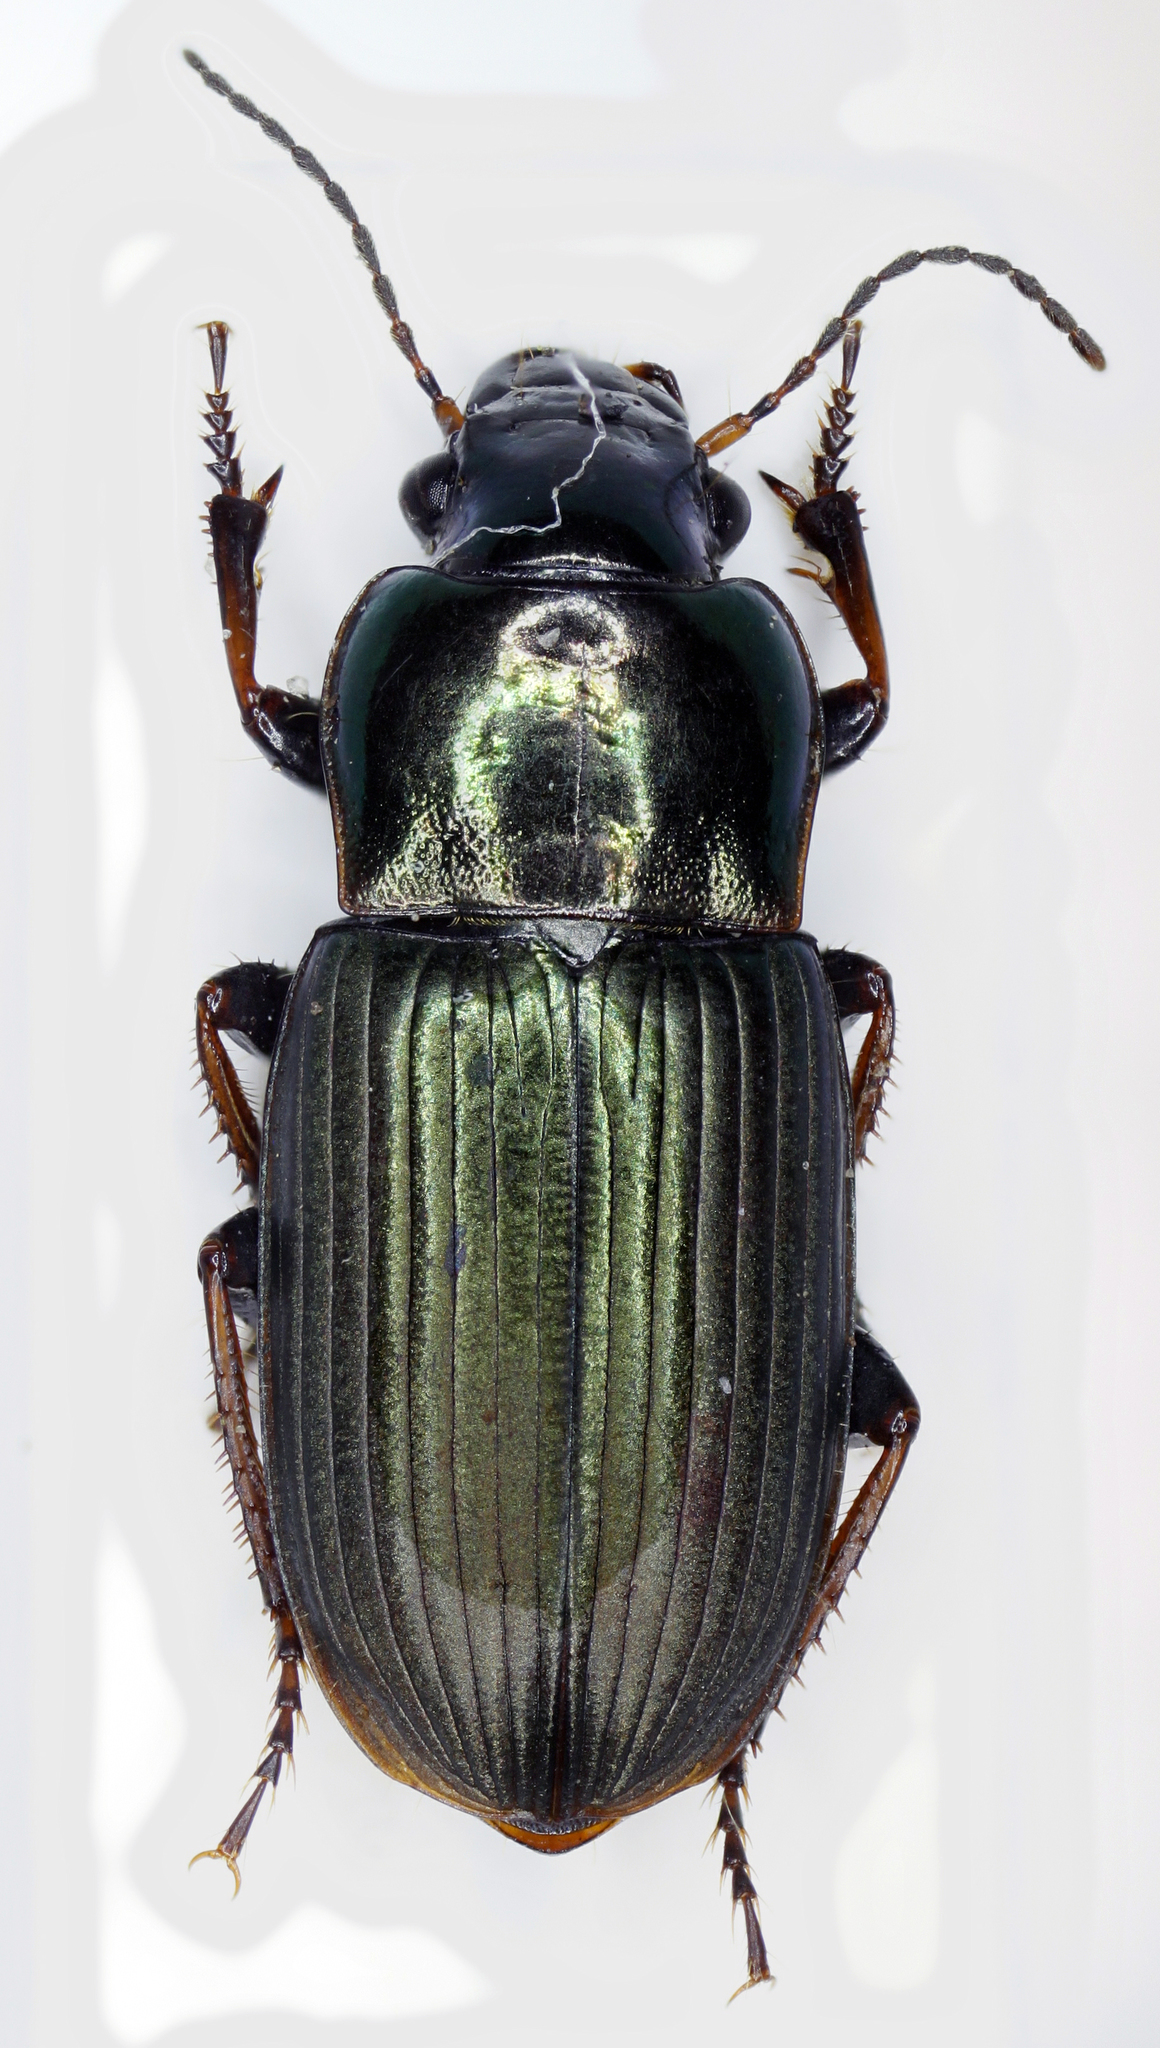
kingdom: Animalia
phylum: Arthropoda
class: Insecta
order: Coleoptera
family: Carabidae
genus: Harpalus
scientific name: Harpalus distinguendus
